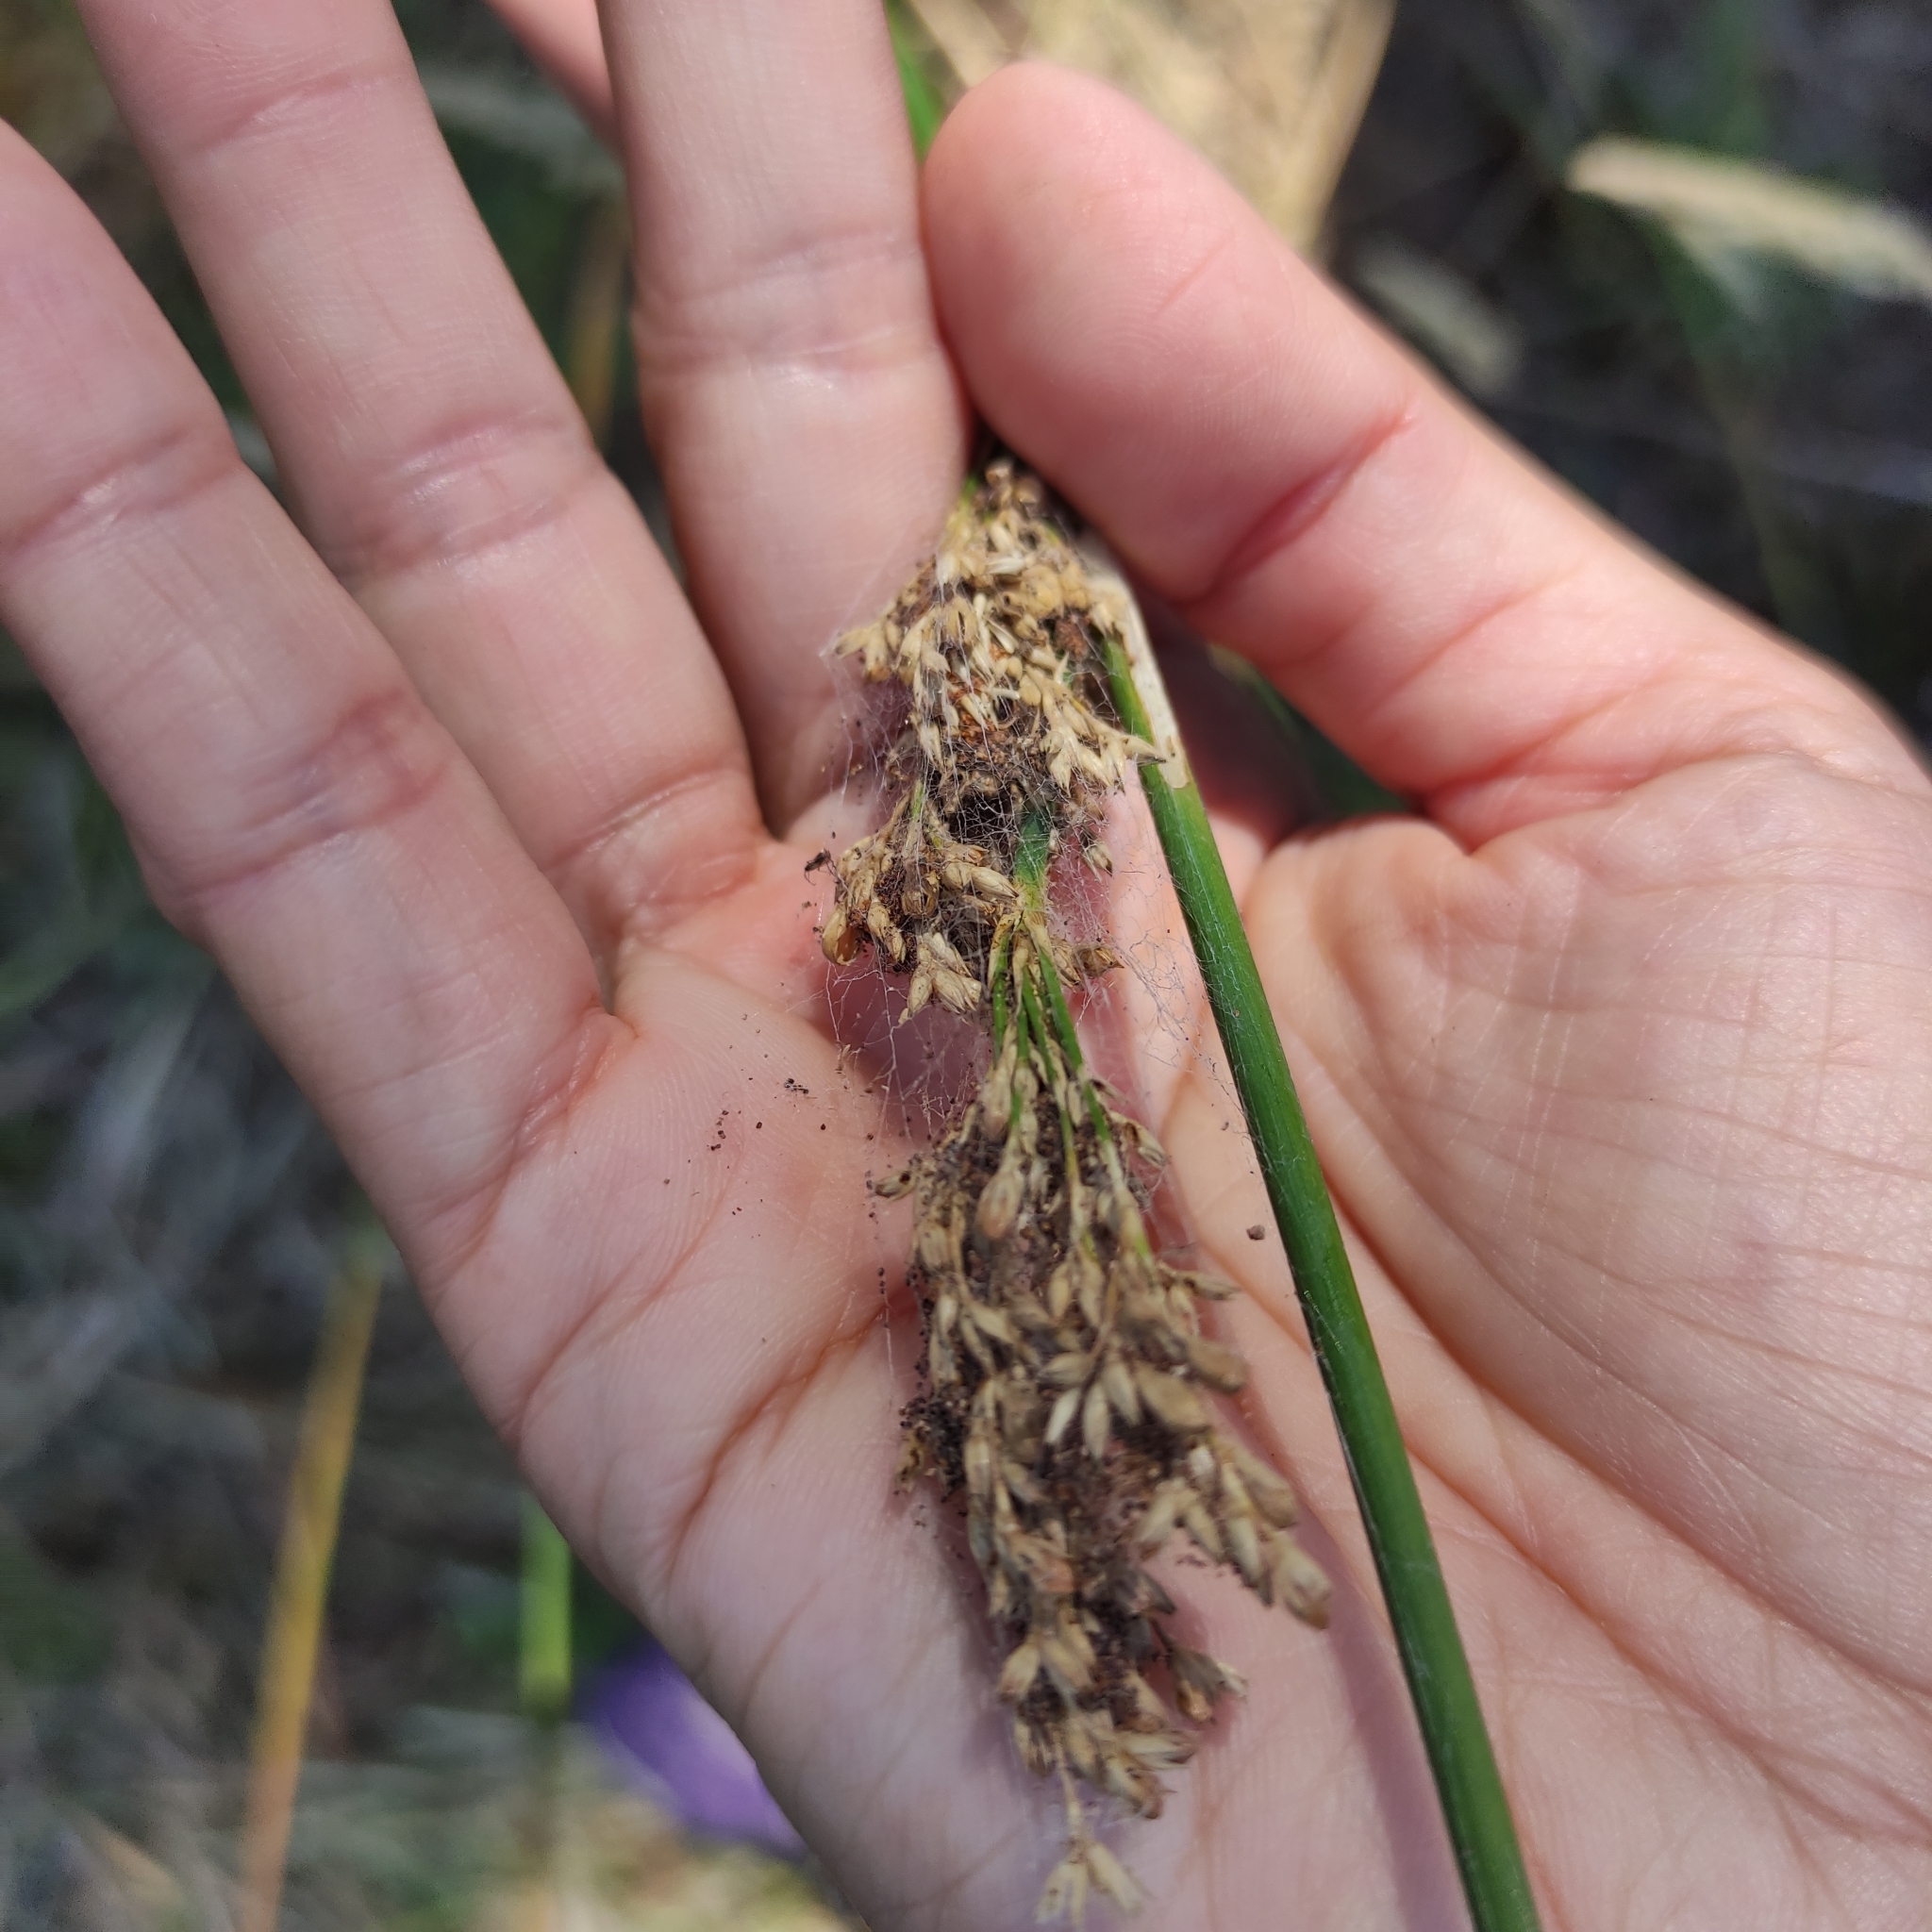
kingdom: Plantae
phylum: Tracheophyta
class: Liliopsida
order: Poales
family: Juncaceae
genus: Juncus
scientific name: Juncus pallidus
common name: Great soft-rush
